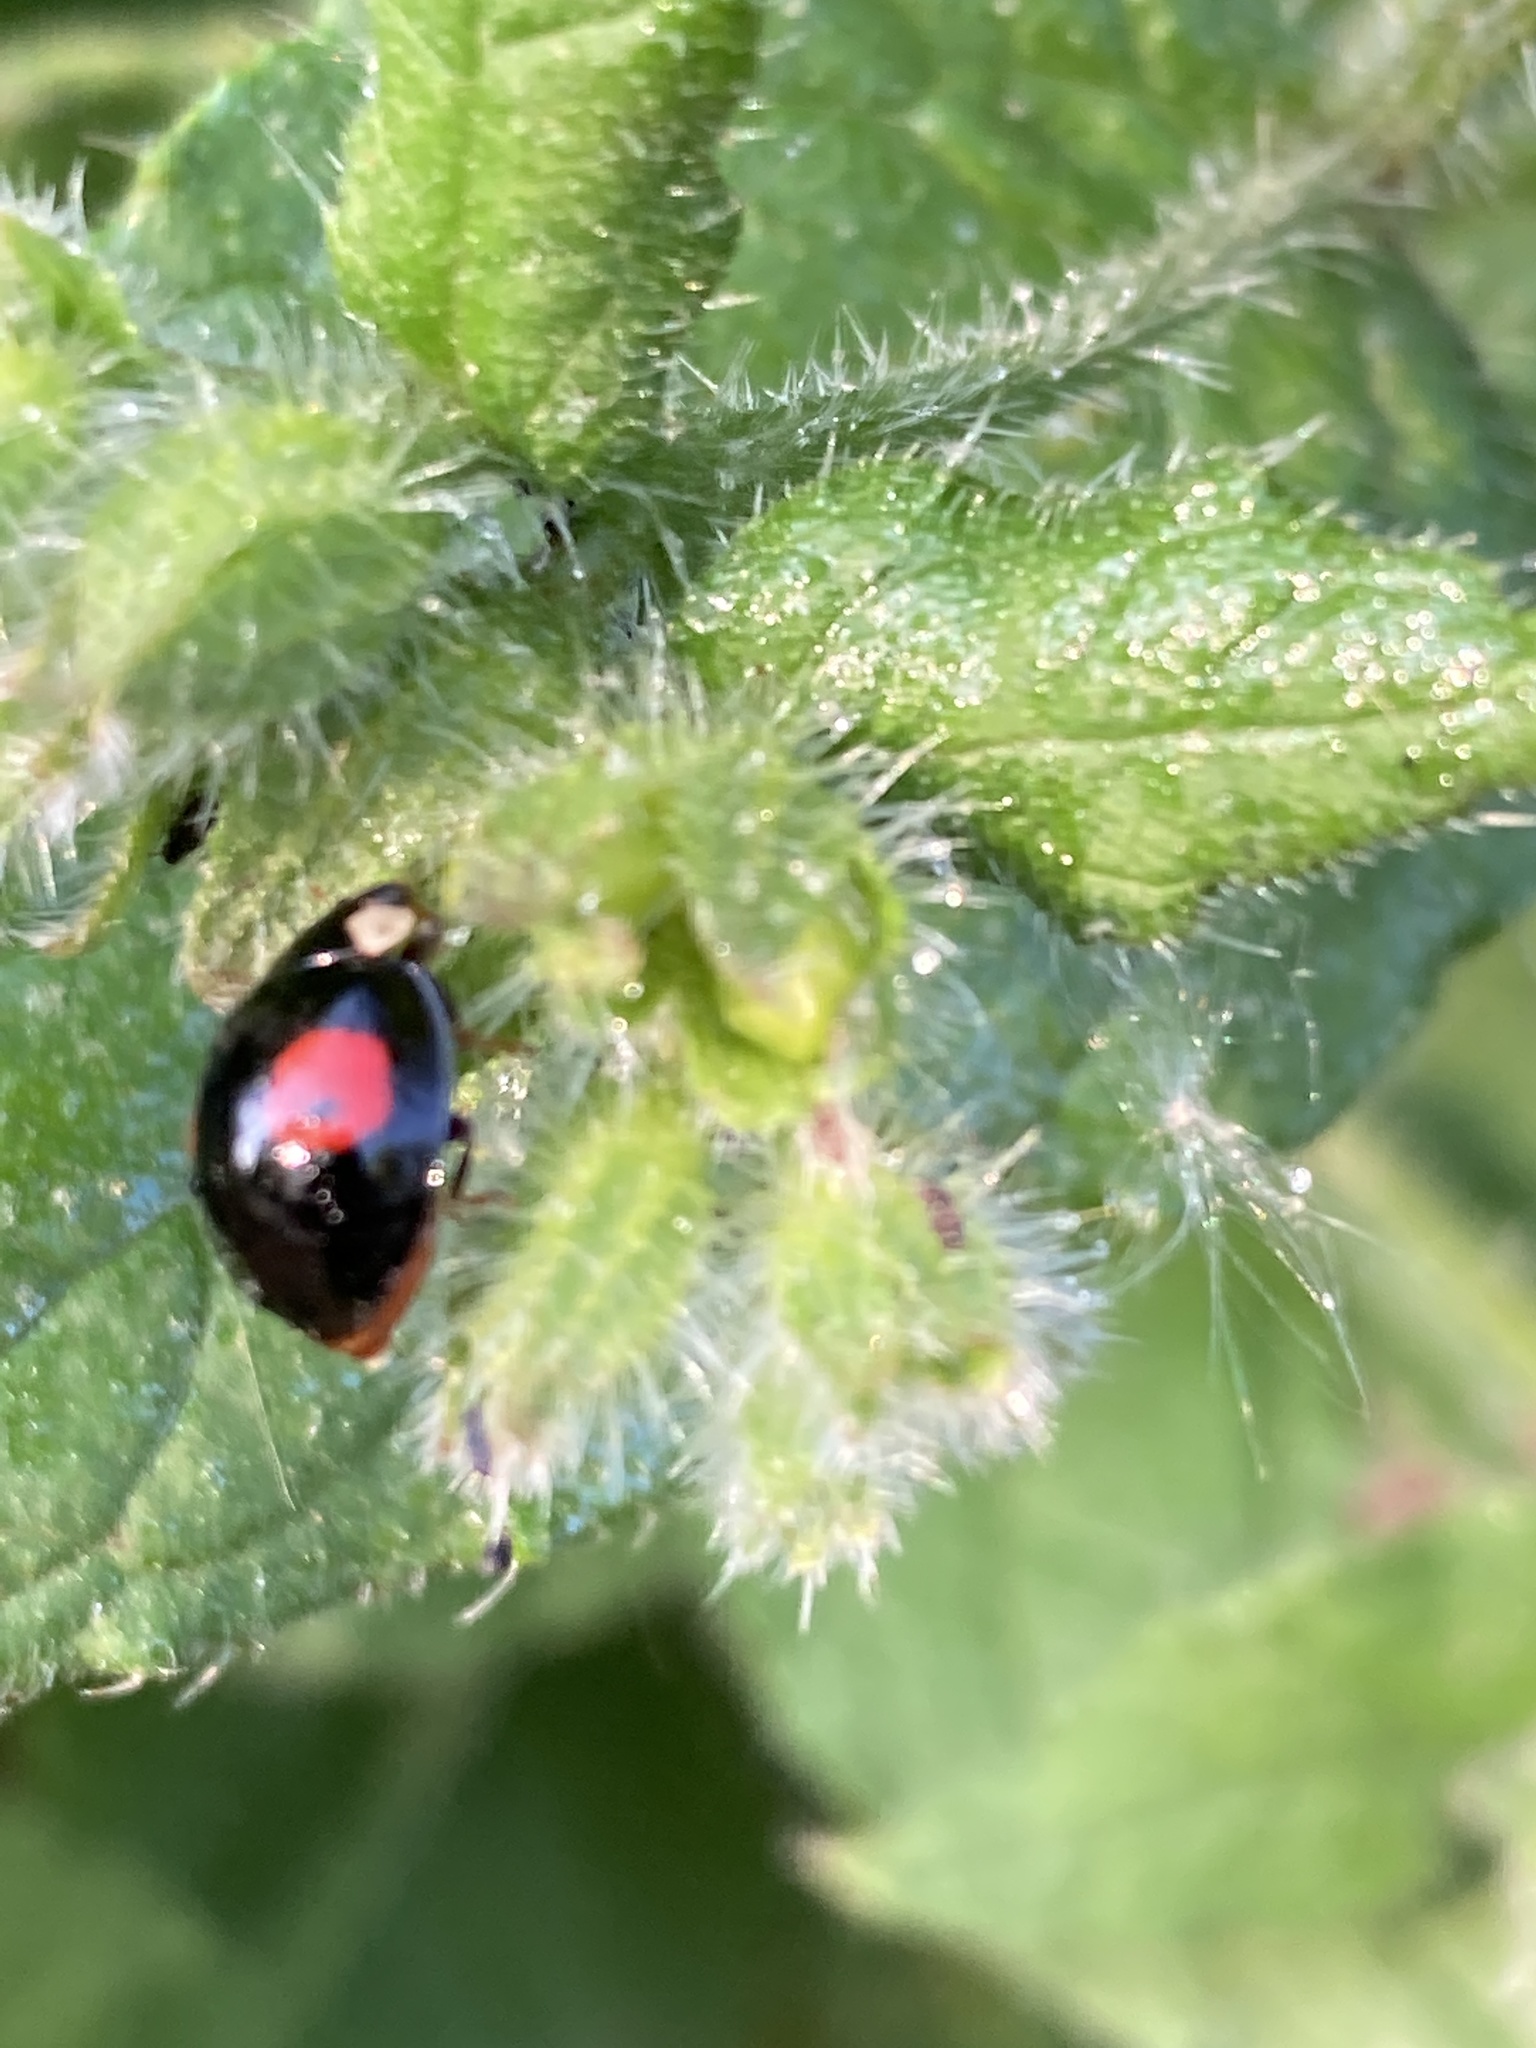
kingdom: Animalia
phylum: Arthropoda
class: Insecta
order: Coleoptera
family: Coccinellidae
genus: Harmonia
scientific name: Harmonia axyridis
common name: Harlequin ladybird
